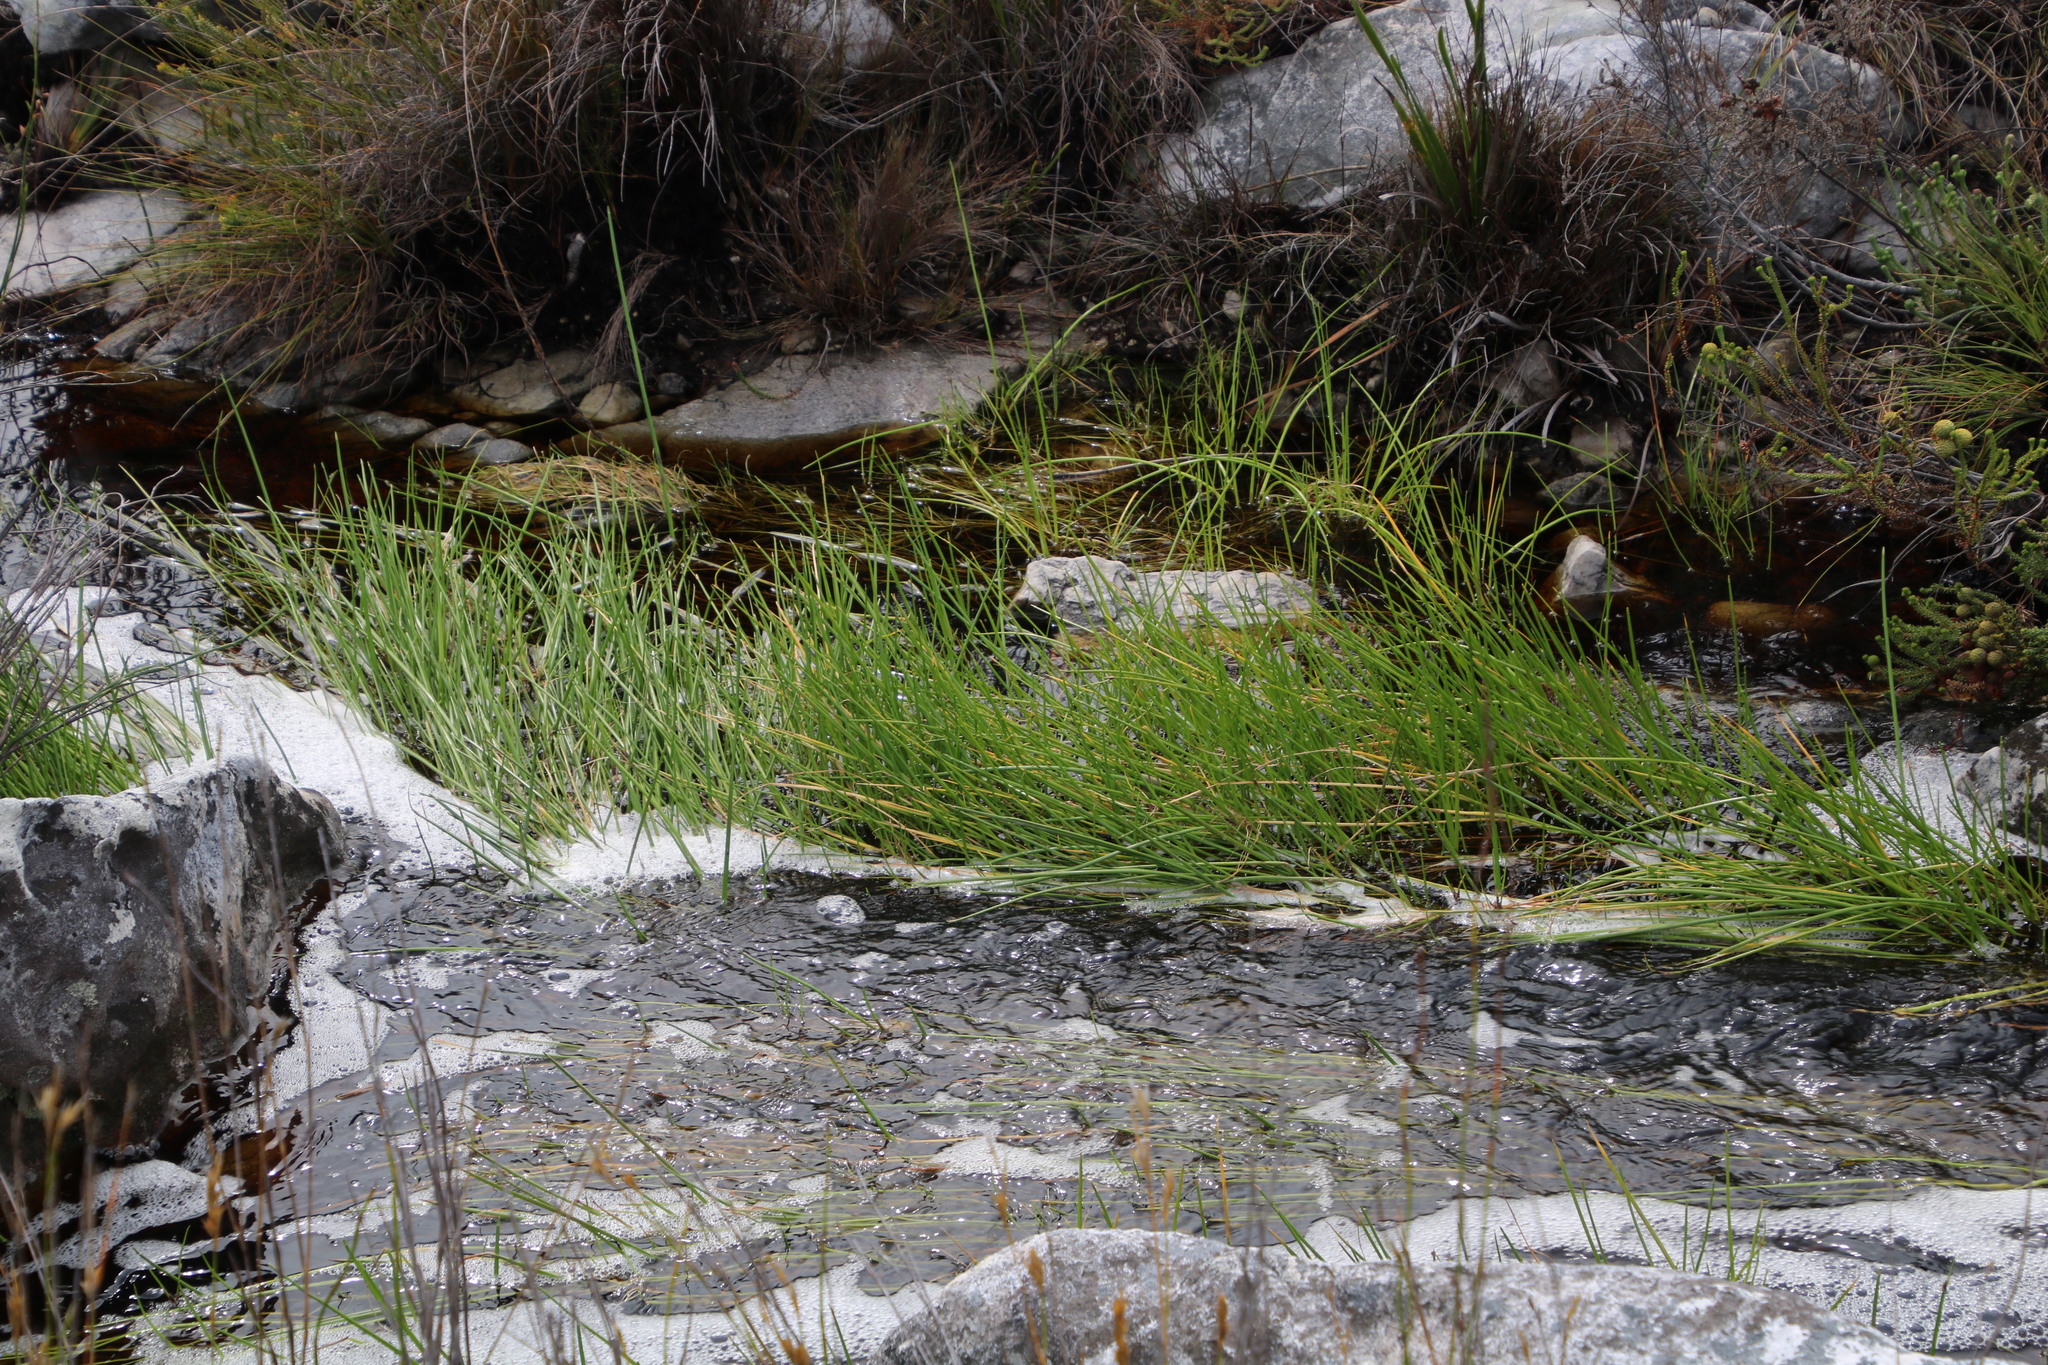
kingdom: Plantae
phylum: Tracheophyta
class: Liliopsida
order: Poales
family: Cyperaceae
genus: Isolepis
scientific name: Isolepis prolifera
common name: Proliferating bulrush
